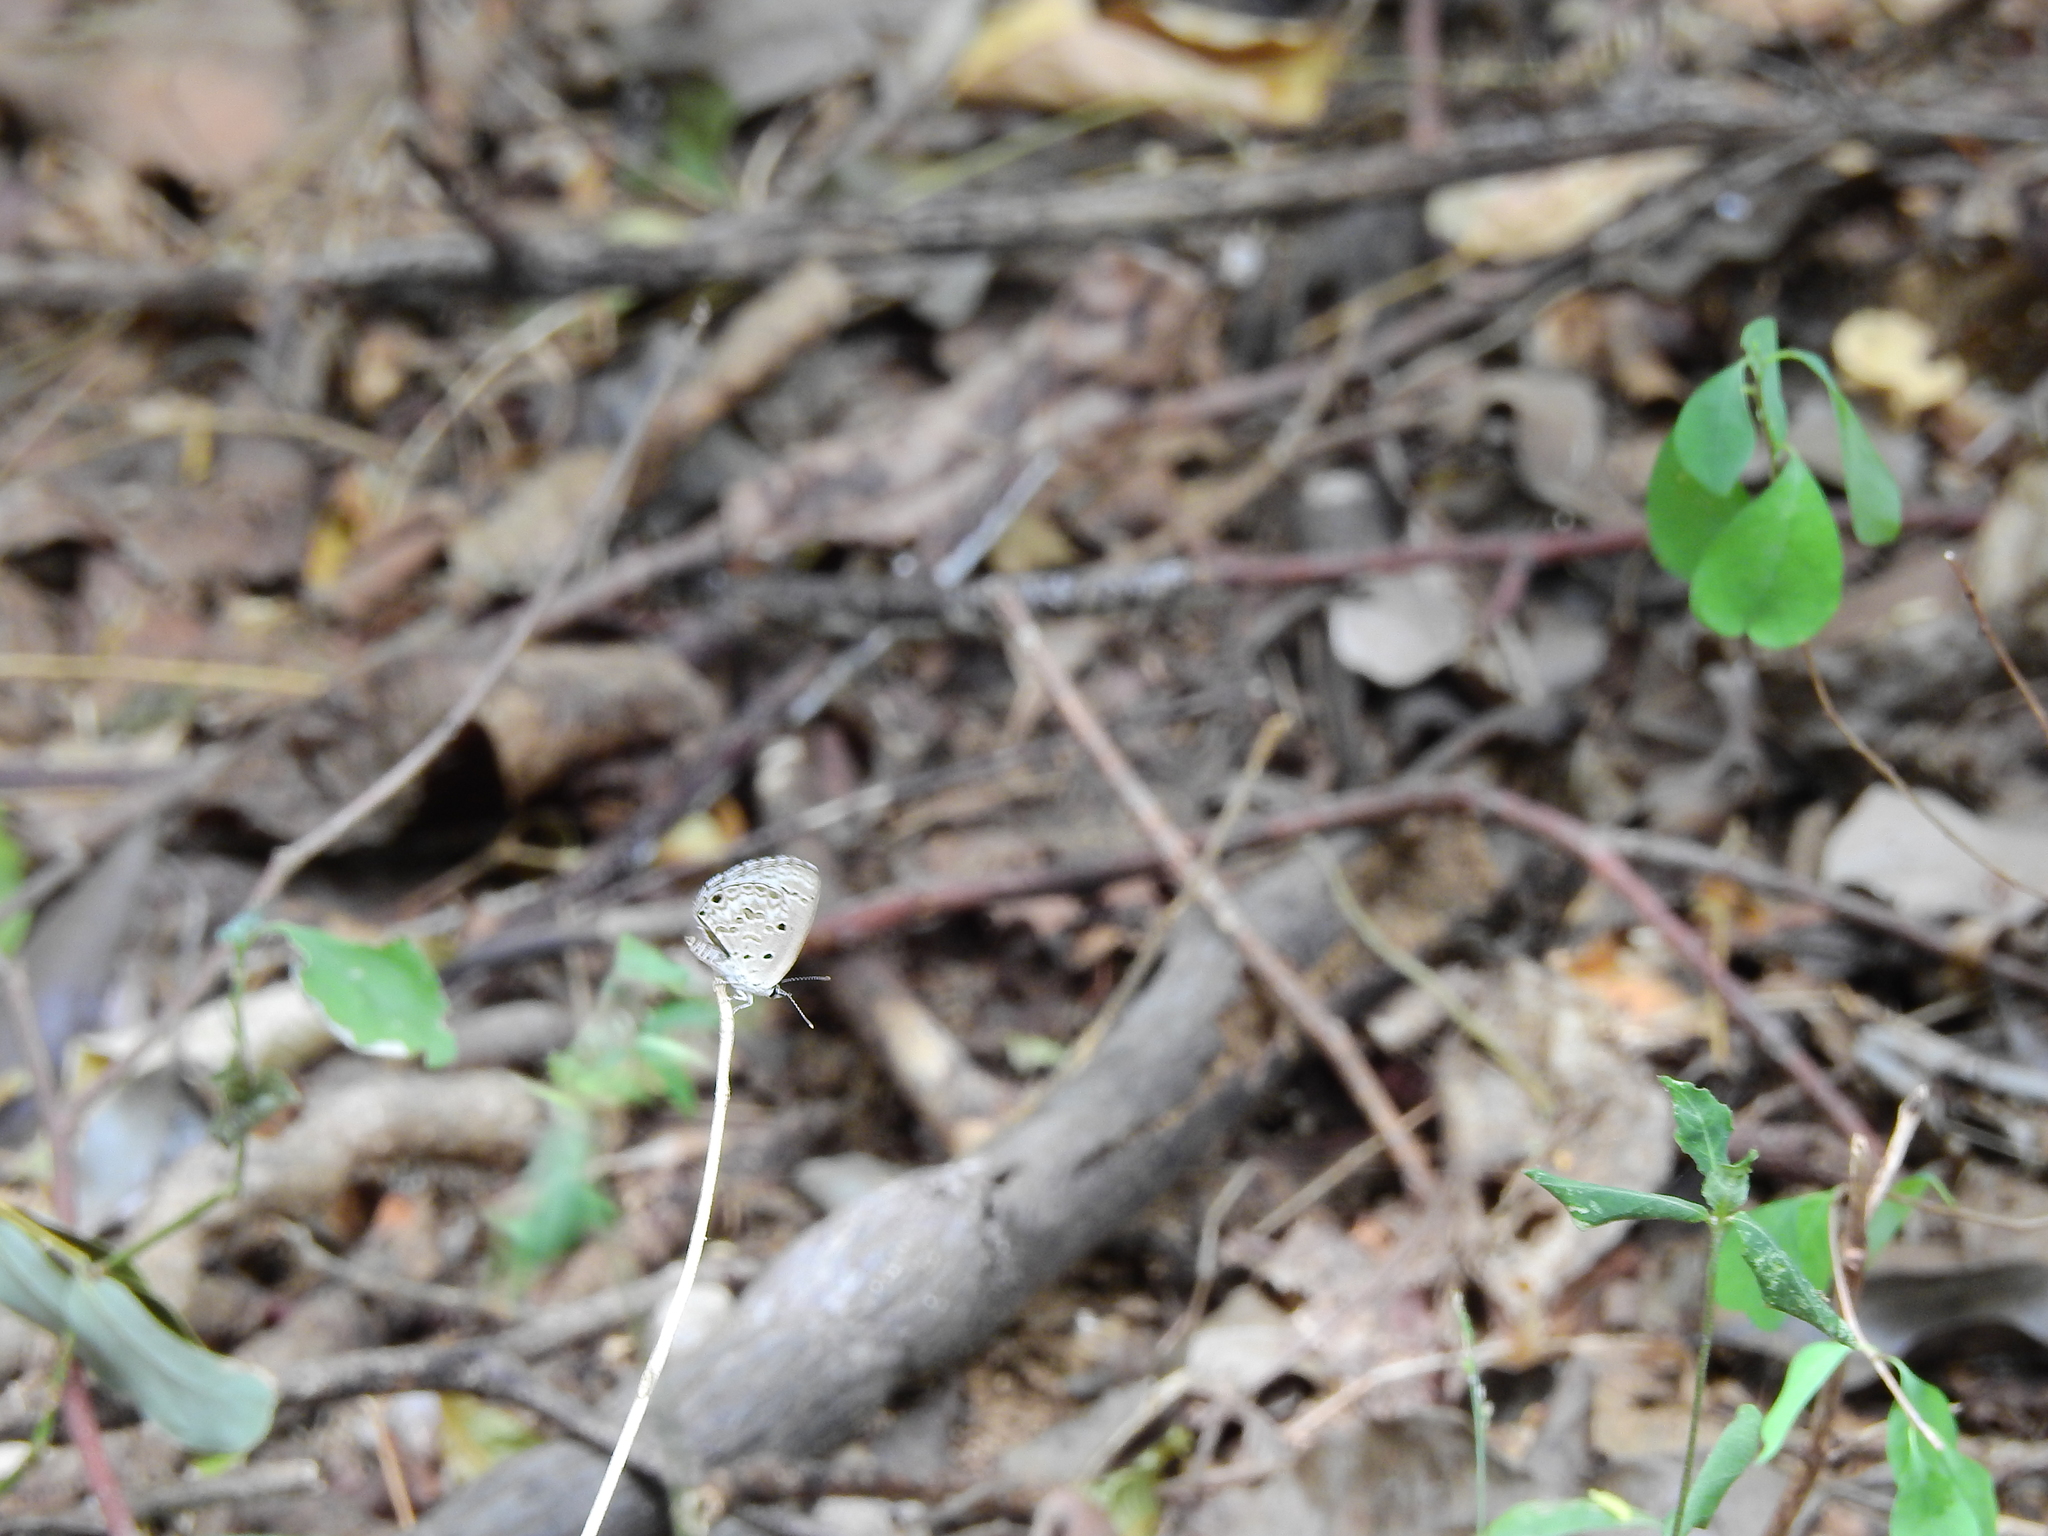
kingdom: Animalia
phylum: Arthropoda
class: Insecta
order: Lepidoptera
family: Lycaenidae
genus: Chilades
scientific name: Chilades laius
